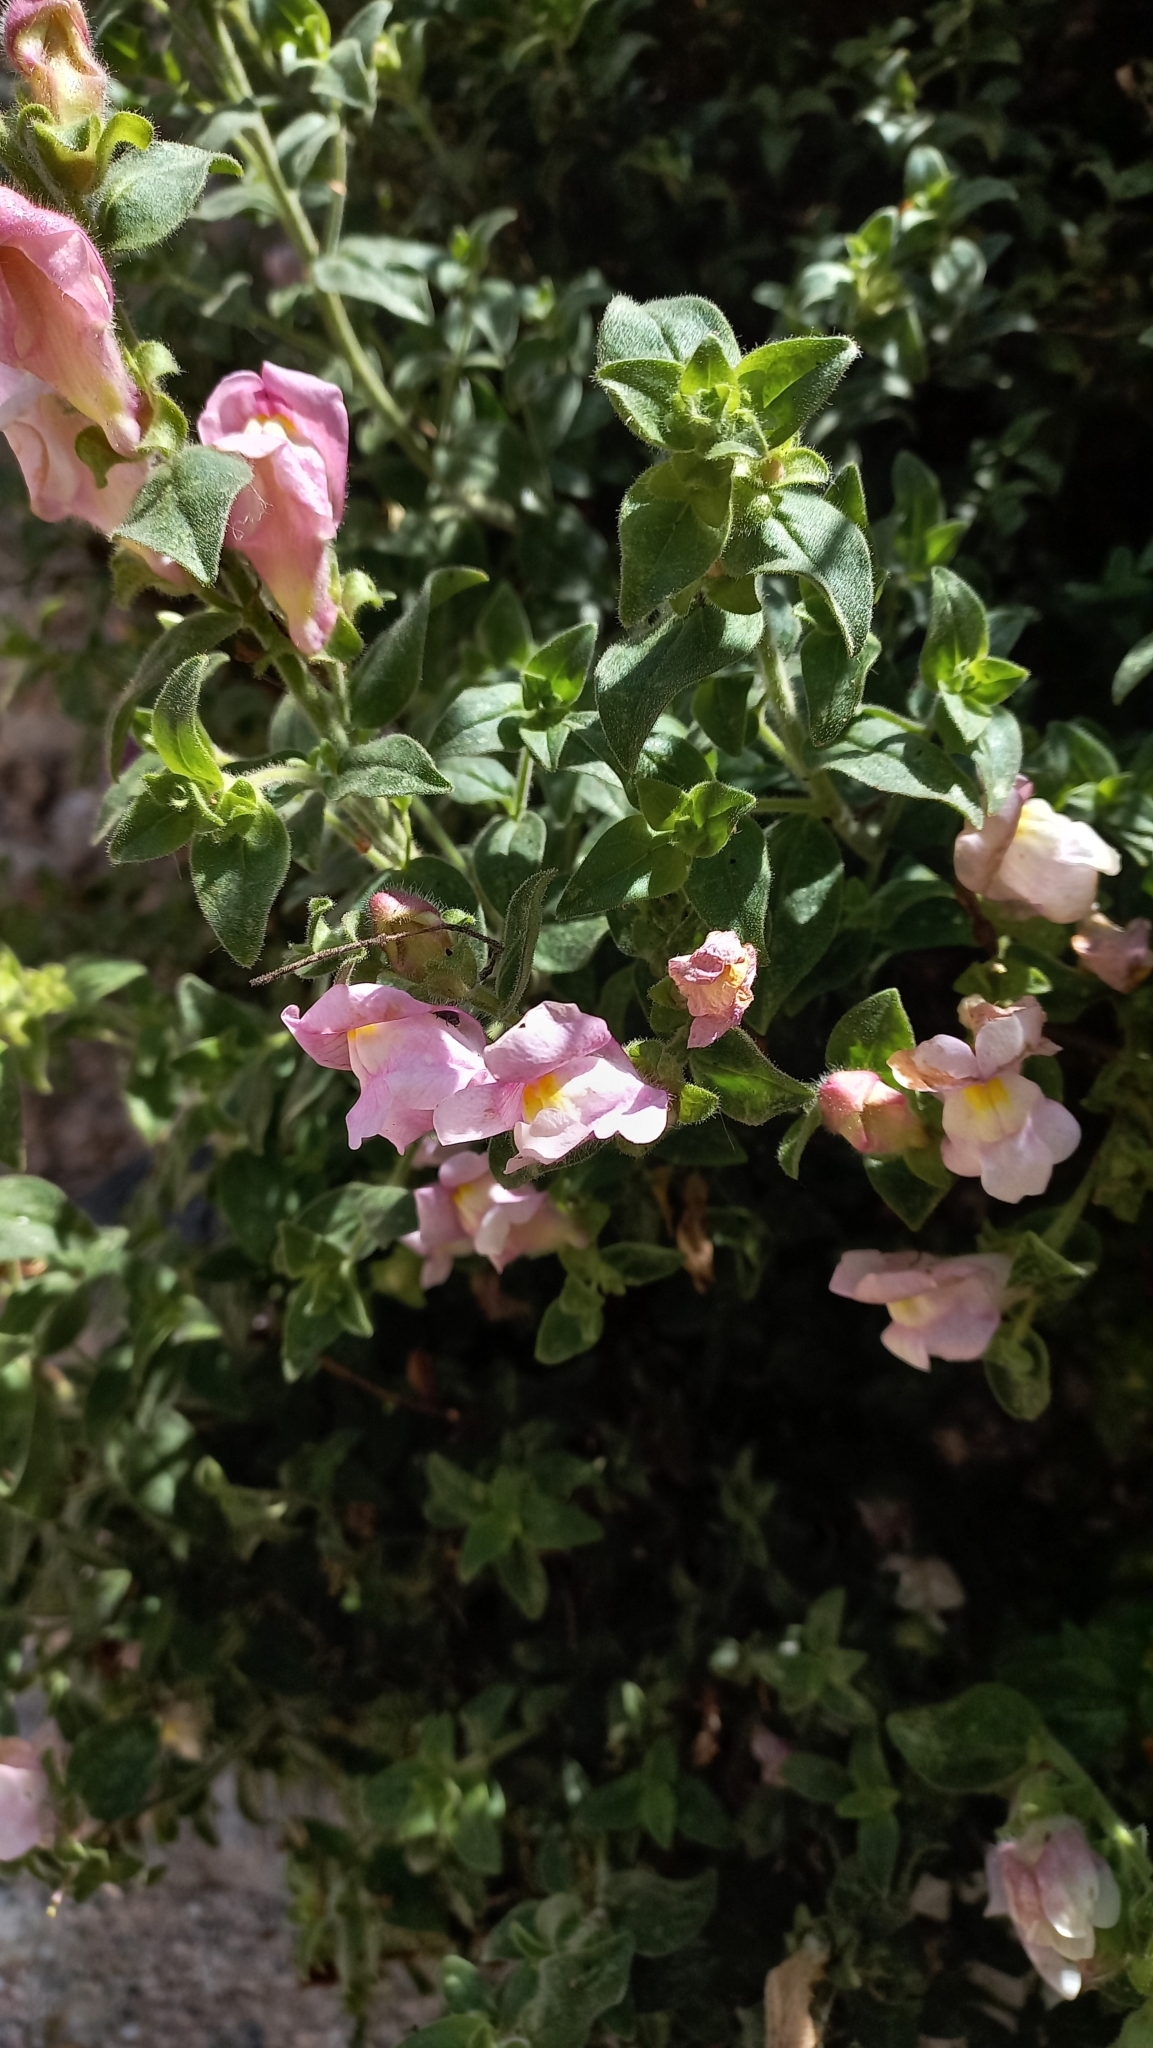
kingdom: Plantae
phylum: Tracheophyta
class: Magnoliopsida
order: Lamiales
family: Plantaginaceae
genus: Antirrhinum
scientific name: Antirrhinum hispanicum
